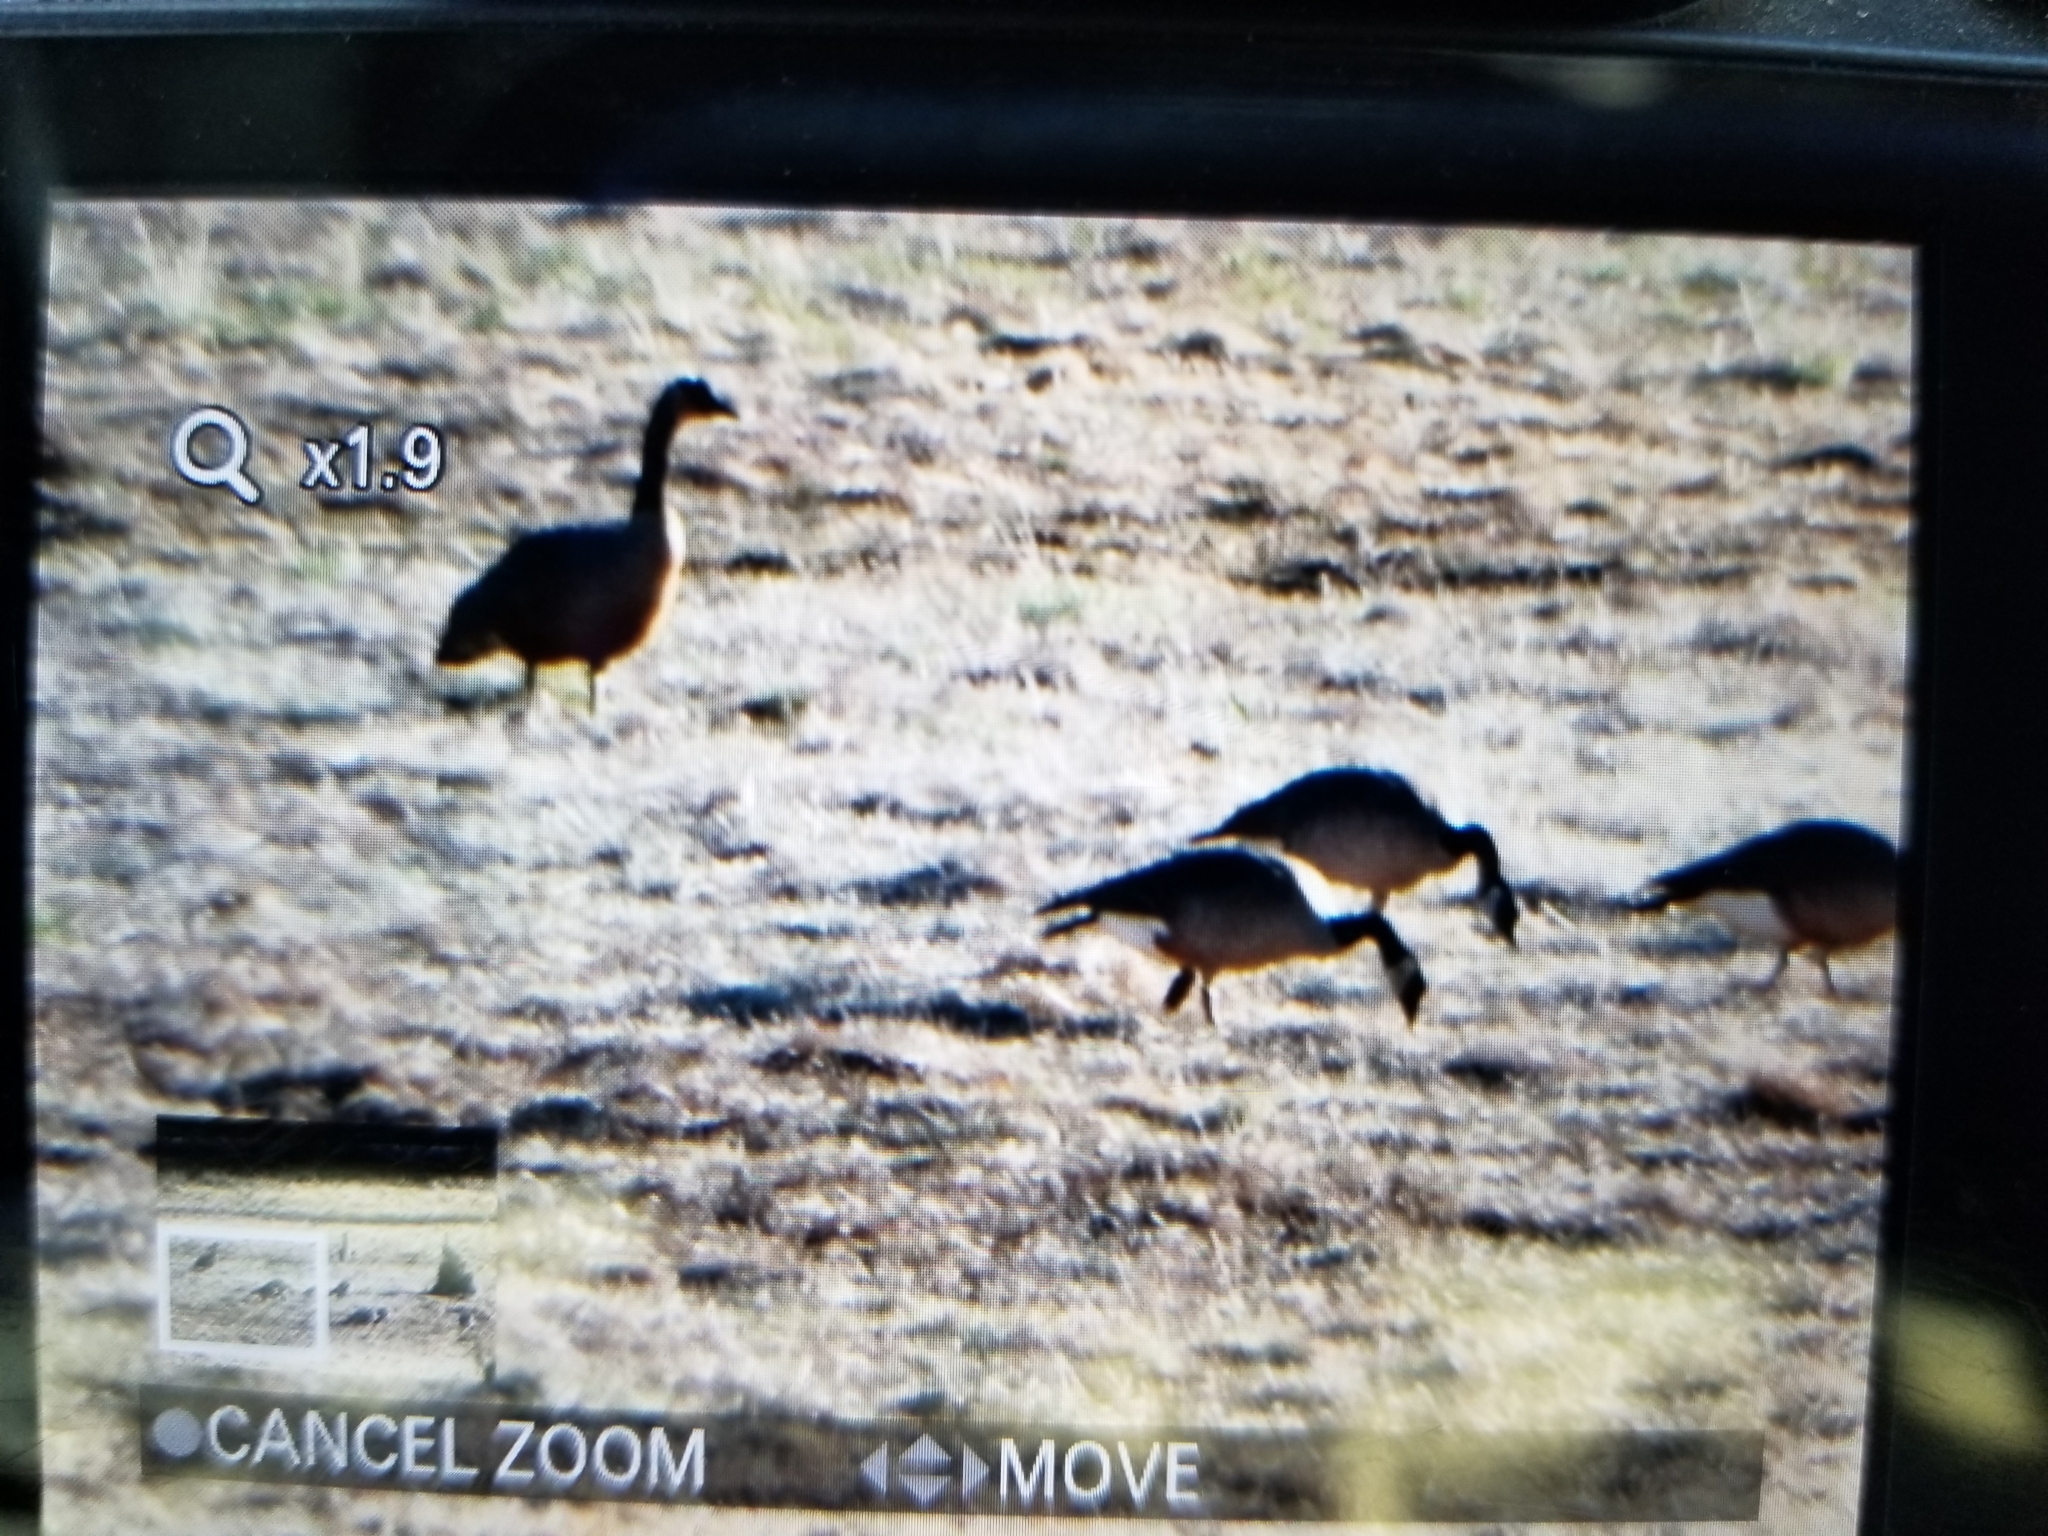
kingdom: Animalia
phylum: Chordata
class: Aves
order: Anseriformes
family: Anatidae
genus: Branta
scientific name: Branta canadensis
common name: Canada goose
